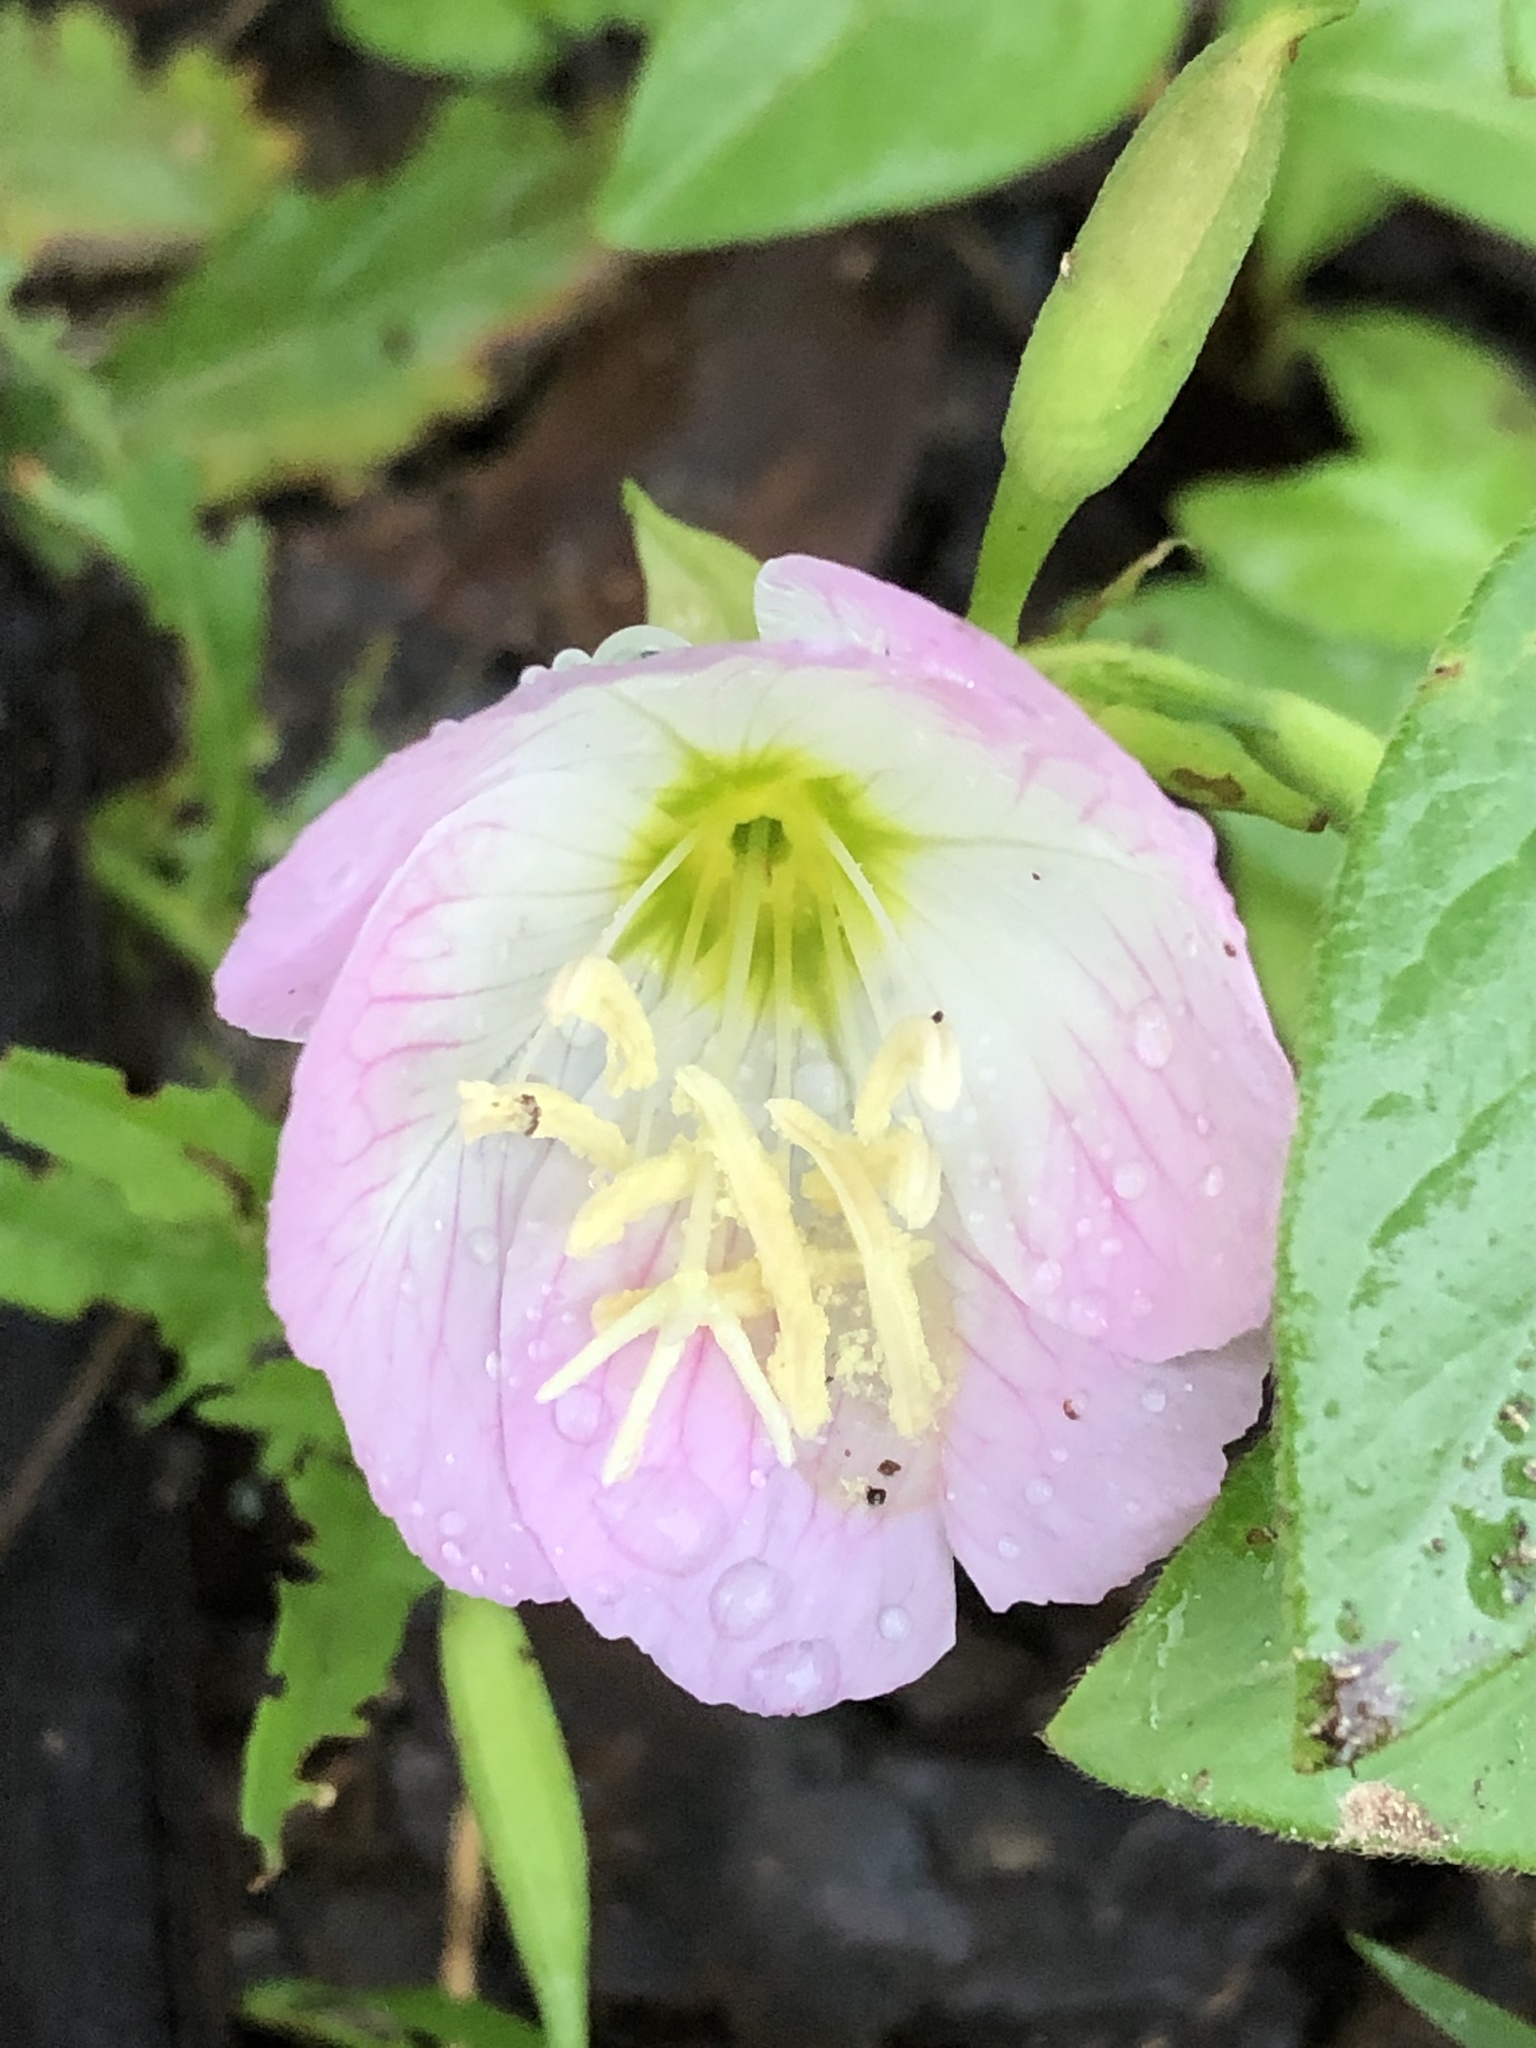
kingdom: Plantae
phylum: Tracheophyta
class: Magnoliopsida
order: Myrtales
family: Onagraceae
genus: Oenothera
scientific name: Oenothera speciosa
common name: White evening-primrose
